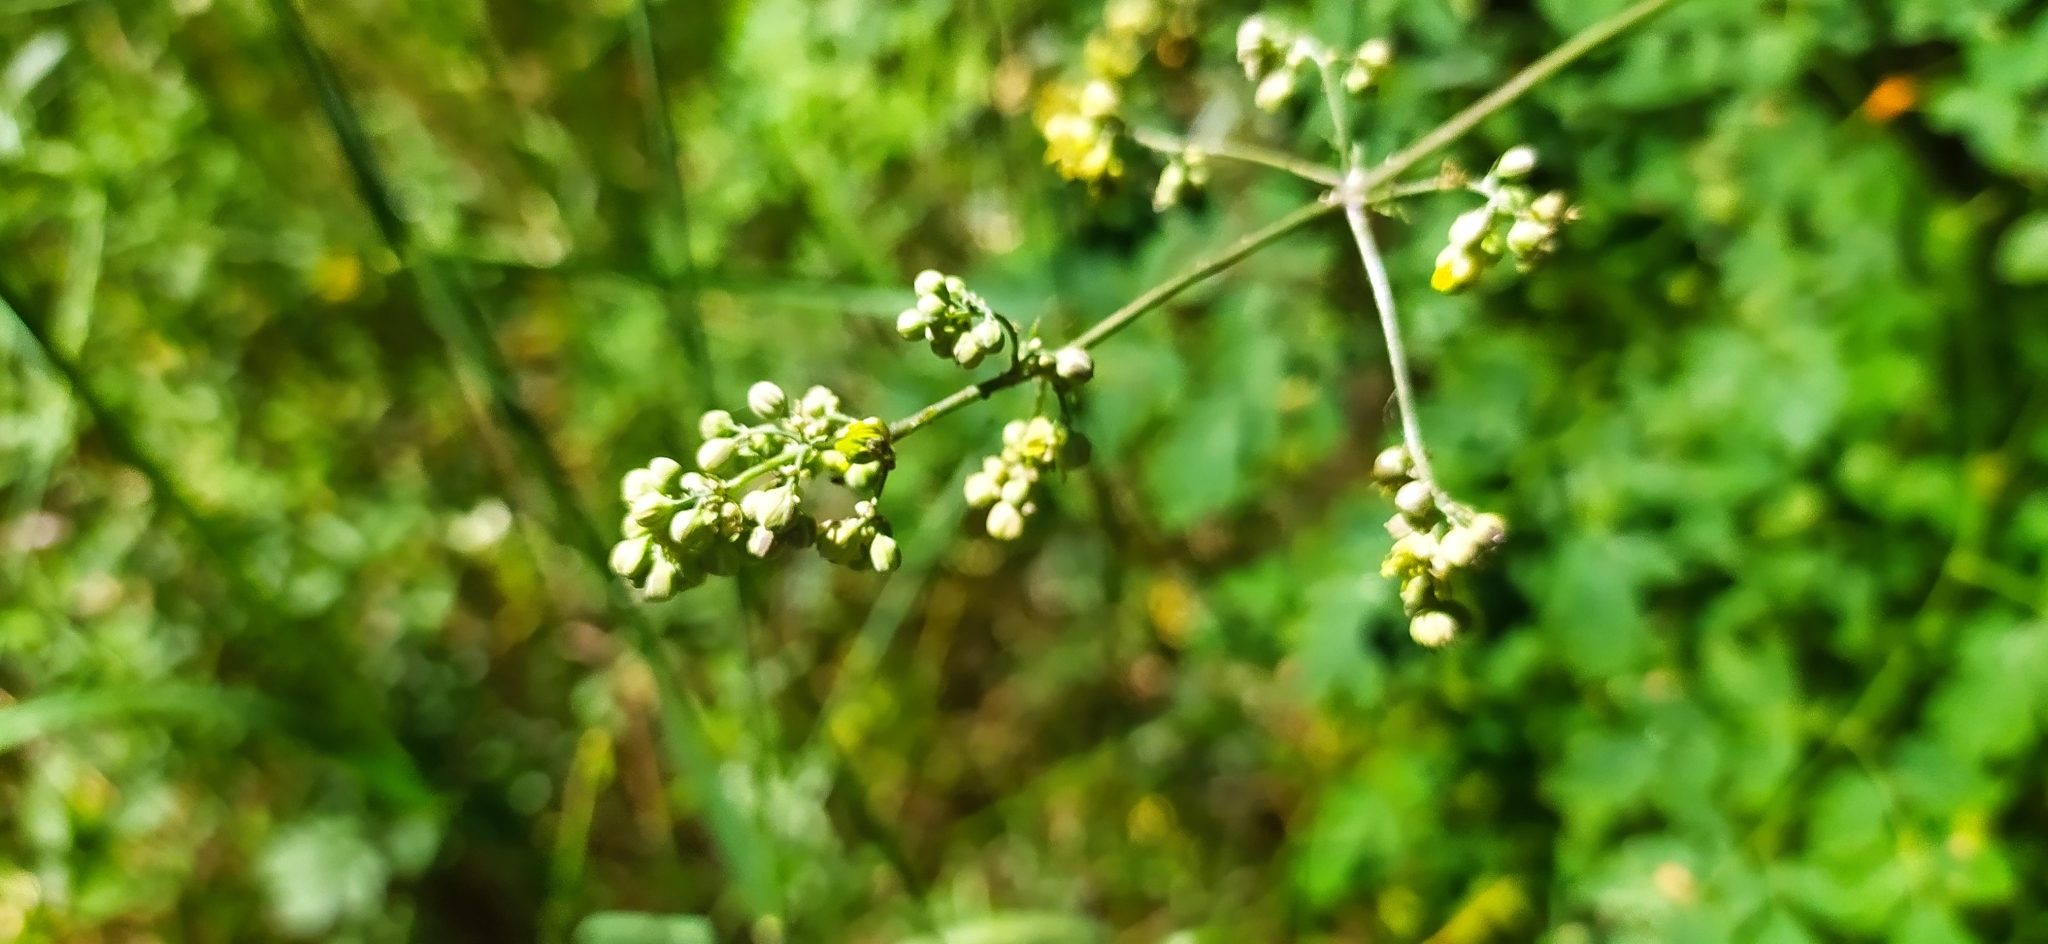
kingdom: Plantae
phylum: Tracheophyta
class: Magnoliopsida
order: Ranunculales
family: Ranunculaceae
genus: Thalictrum
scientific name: Thalictrum minus
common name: Lesser meadow-rue
